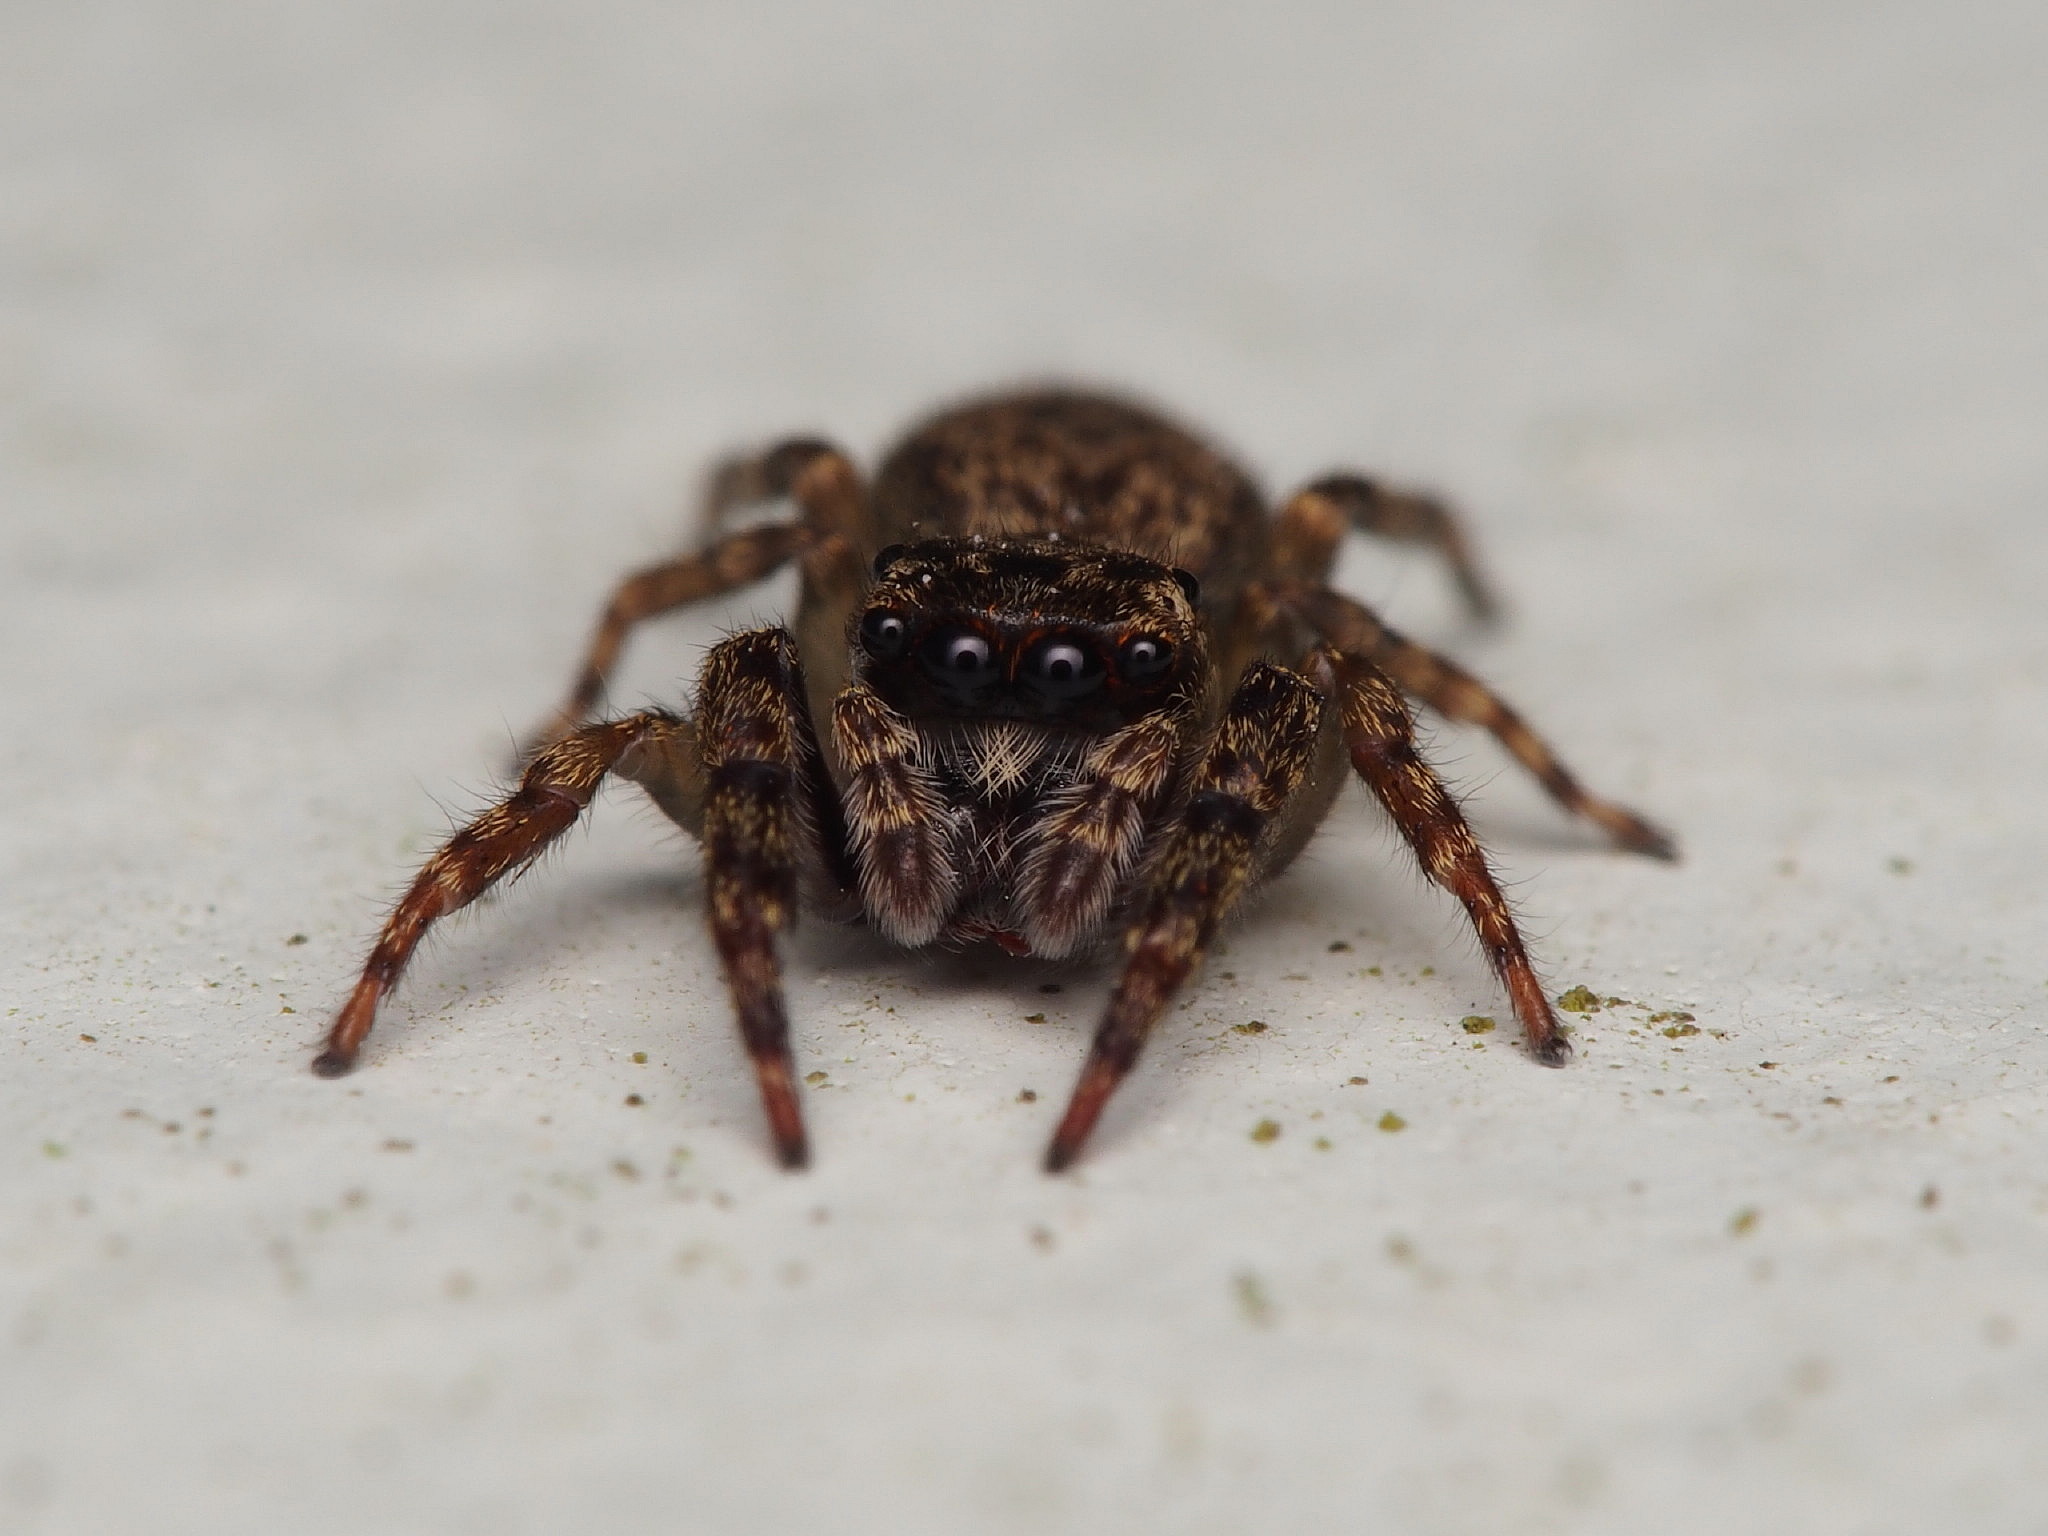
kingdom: Animalia
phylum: Arthropoda
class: Arachnida
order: Araneae
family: Salticidae
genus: Trite
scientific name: Trite auricoma
